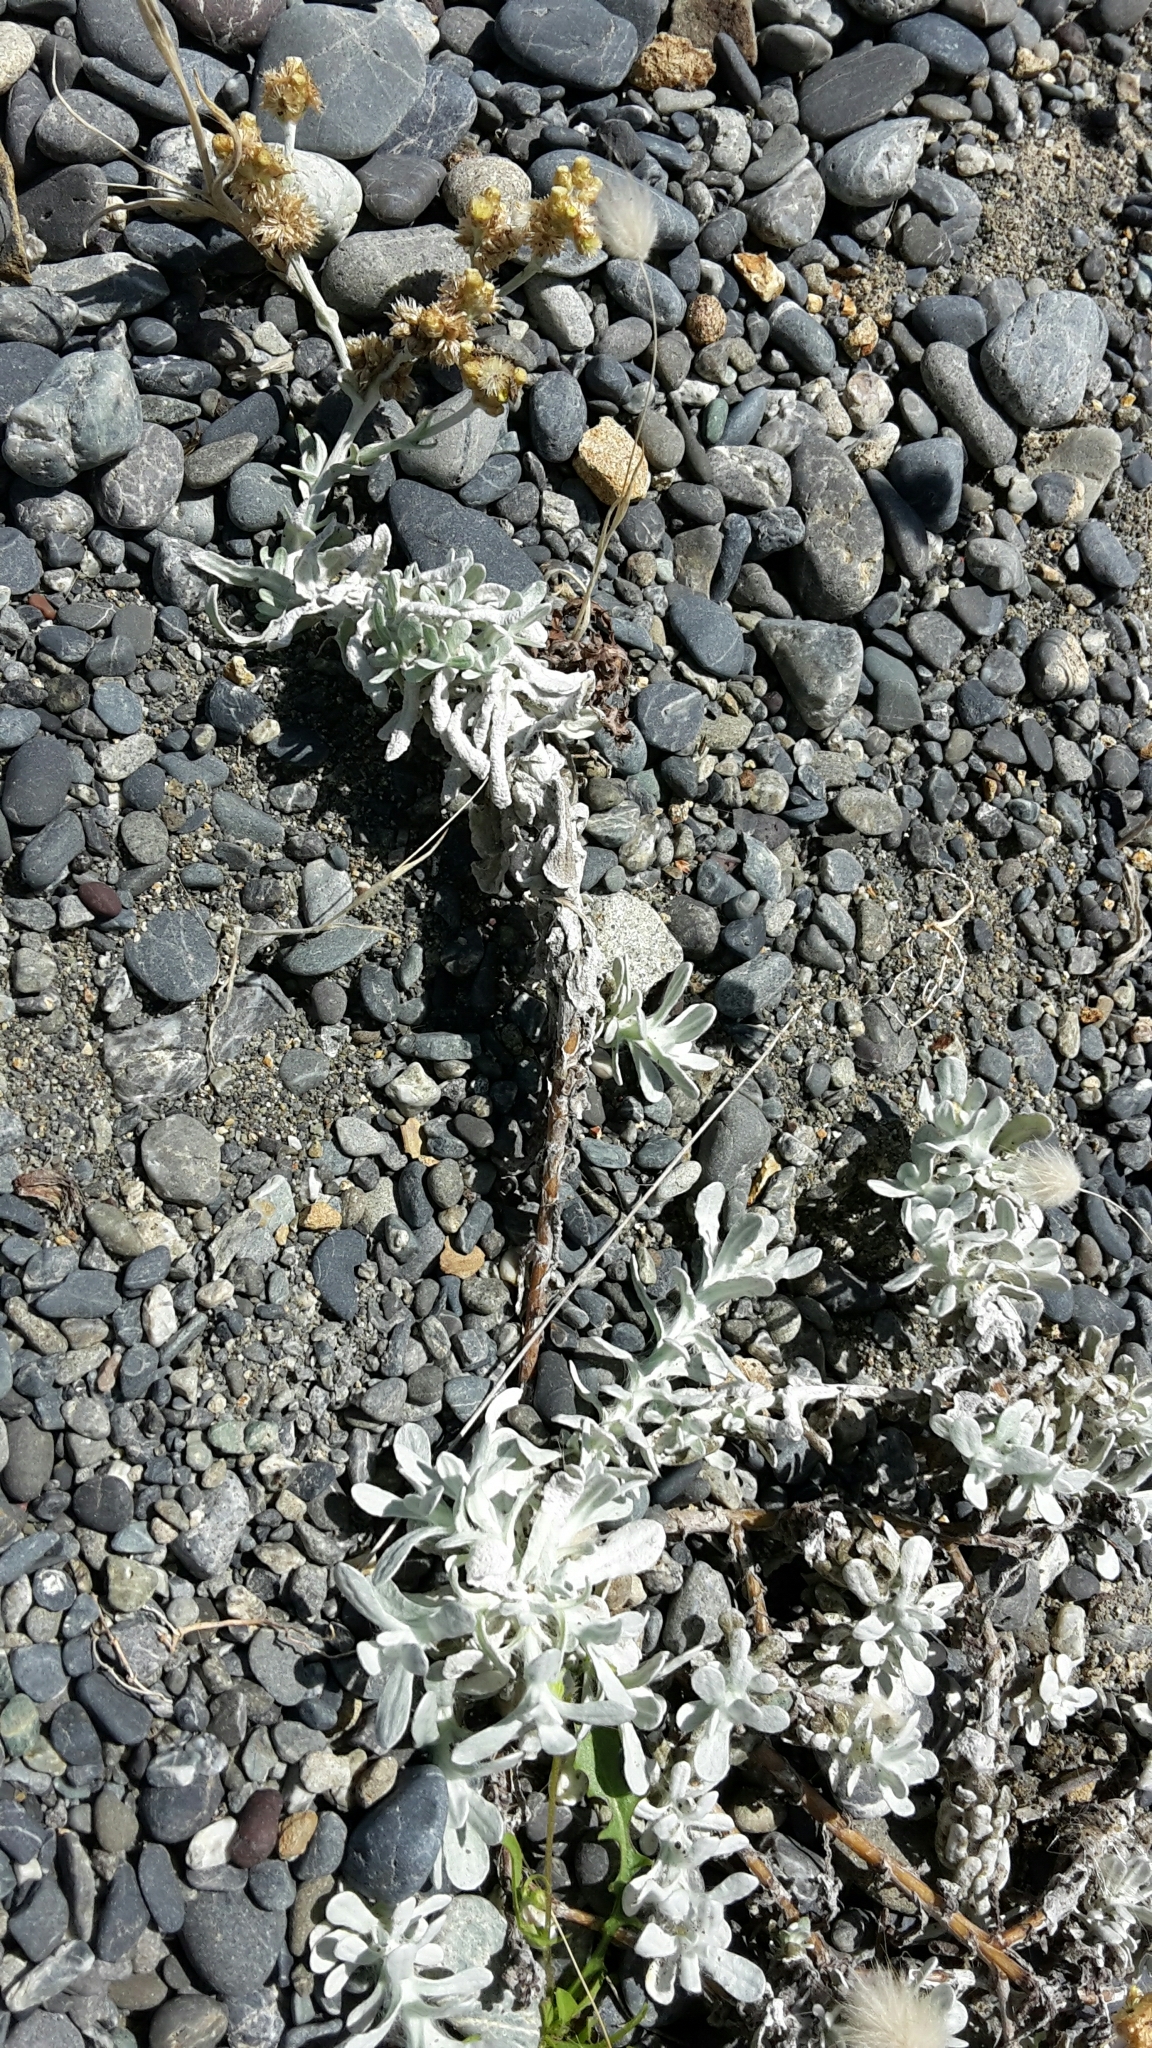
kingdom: Plantae
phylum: Tracheophyta
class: Magnoliopsida
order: Asterales
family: Asteraceae
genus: Helichrysum
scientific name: Helichrysum luteoalbum
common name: Daisy
